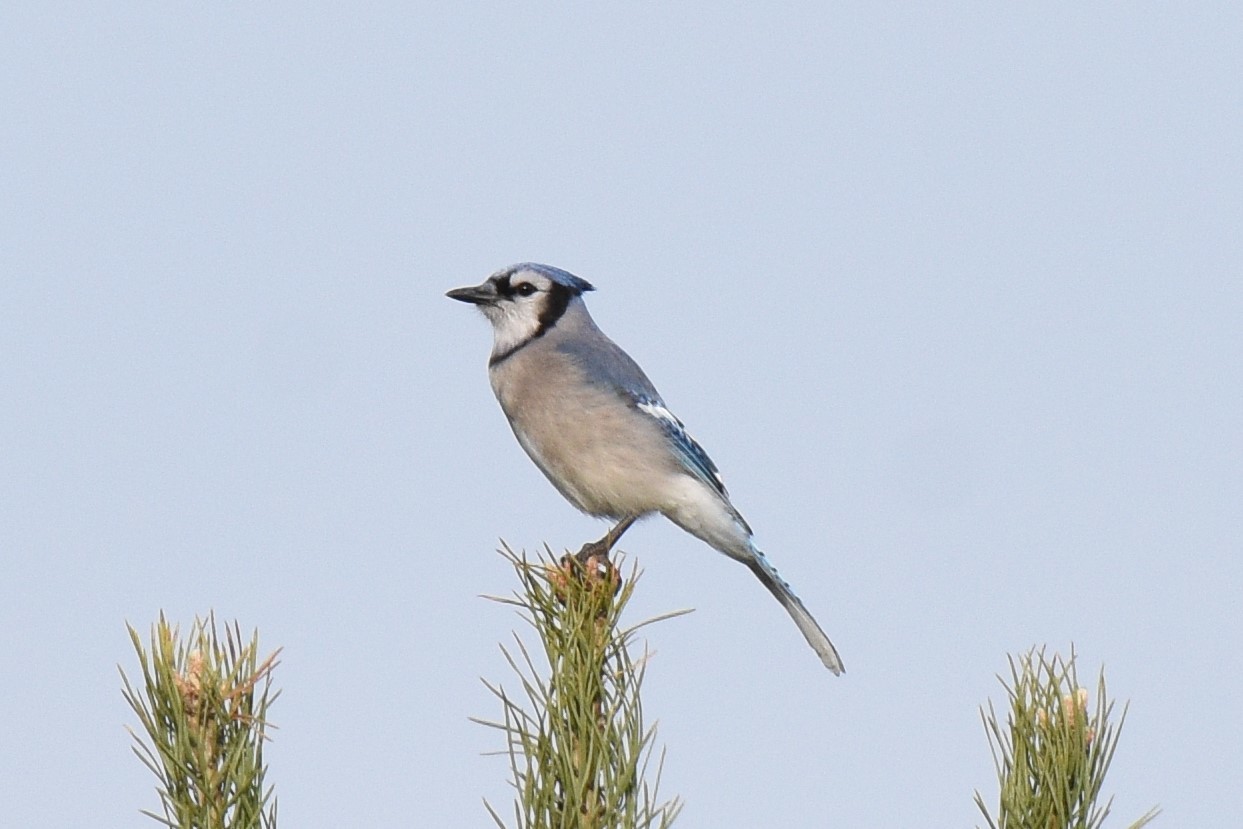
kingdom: Animalia
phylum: Chordata
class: Aves
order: Passeriformes
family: Corvidae
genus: Cyanocitta
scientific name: Cyanocitta cristata
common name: Blue jay
